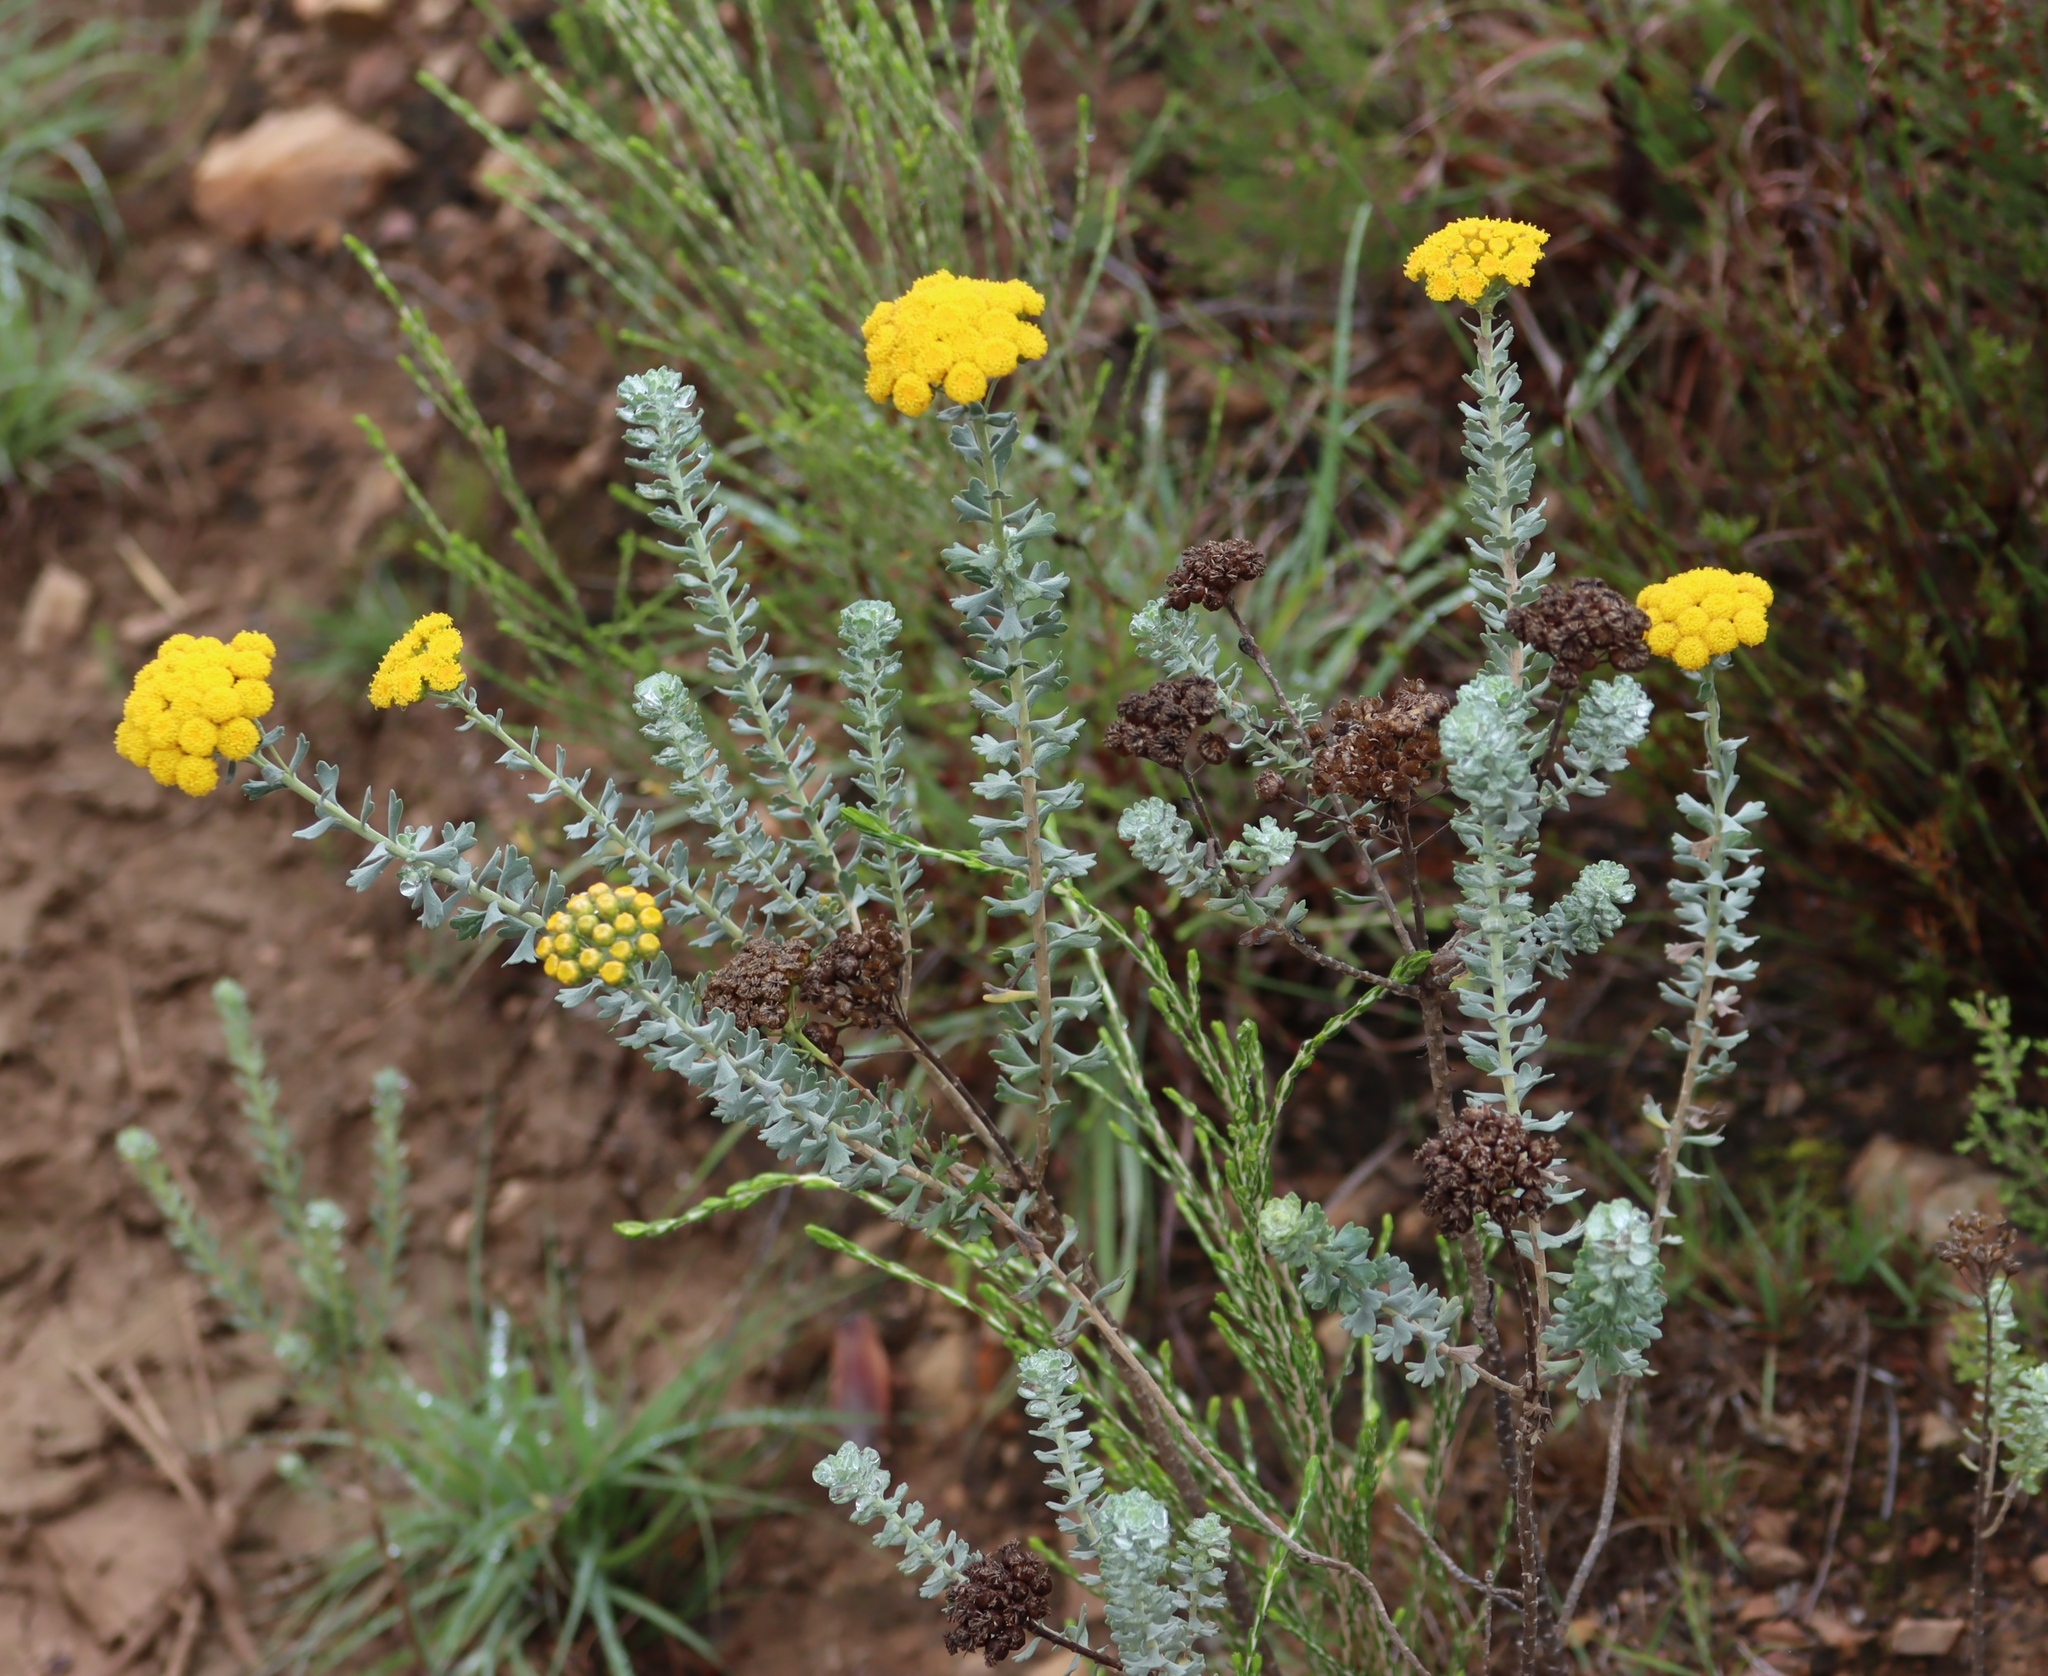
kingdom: Plantae
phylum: Tracheophyta
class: Magnoliopsida
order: Asterales
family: Asteraceae
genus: Athanasia
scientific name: Athanasia trifurcata
